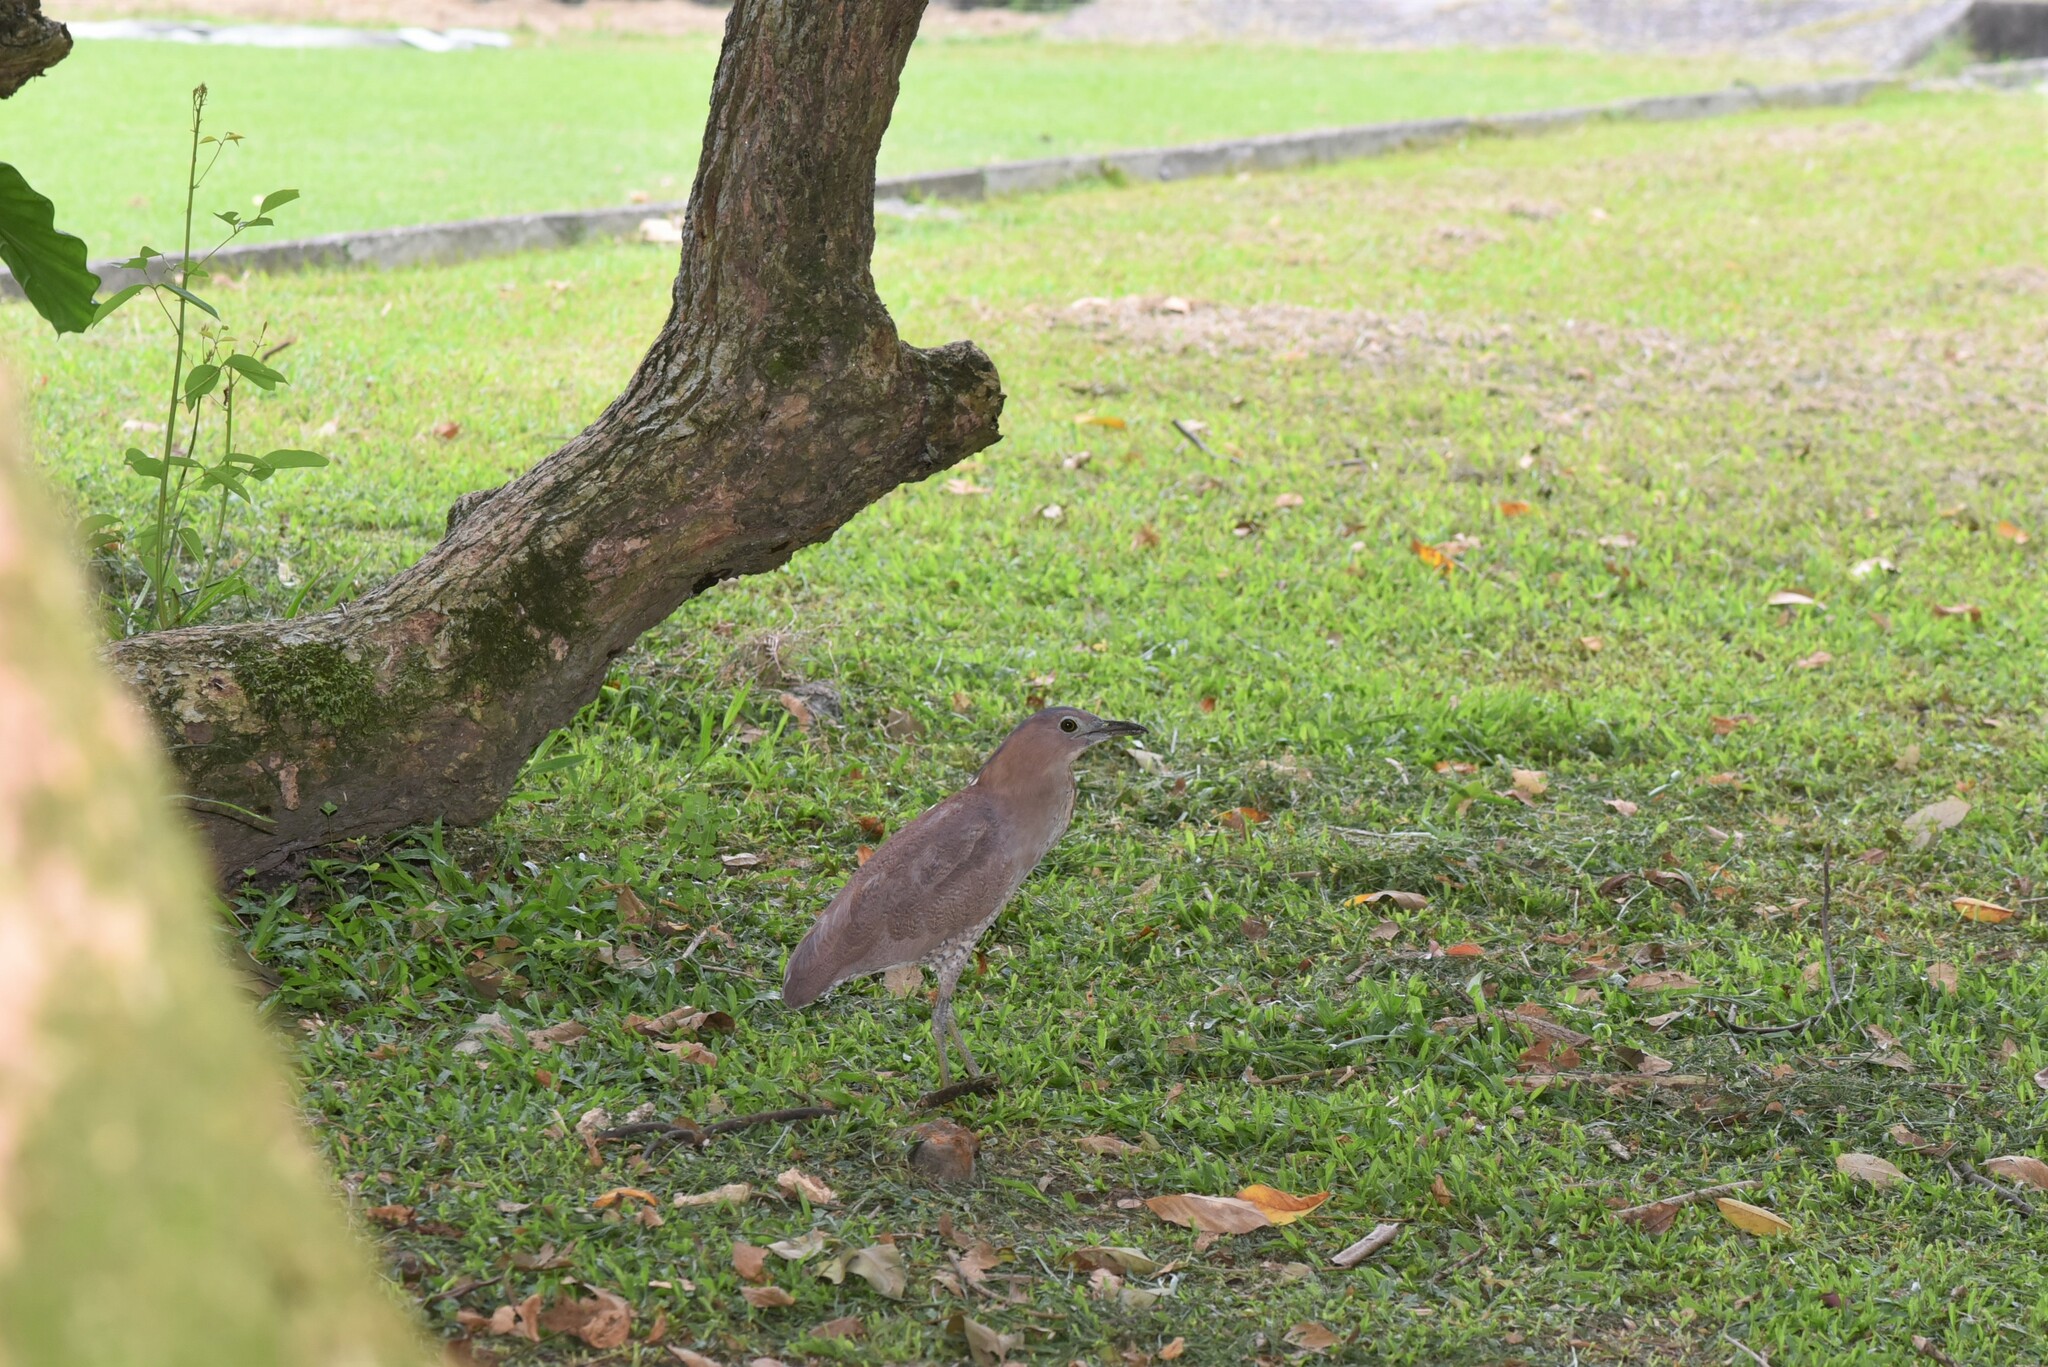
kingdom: Animalia
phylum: Chordata
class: Aves
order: Pelecaniformes
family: Ardeidae
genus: Gorsachius
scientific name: Gorsachius melanolophus
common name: Malayan night heron
